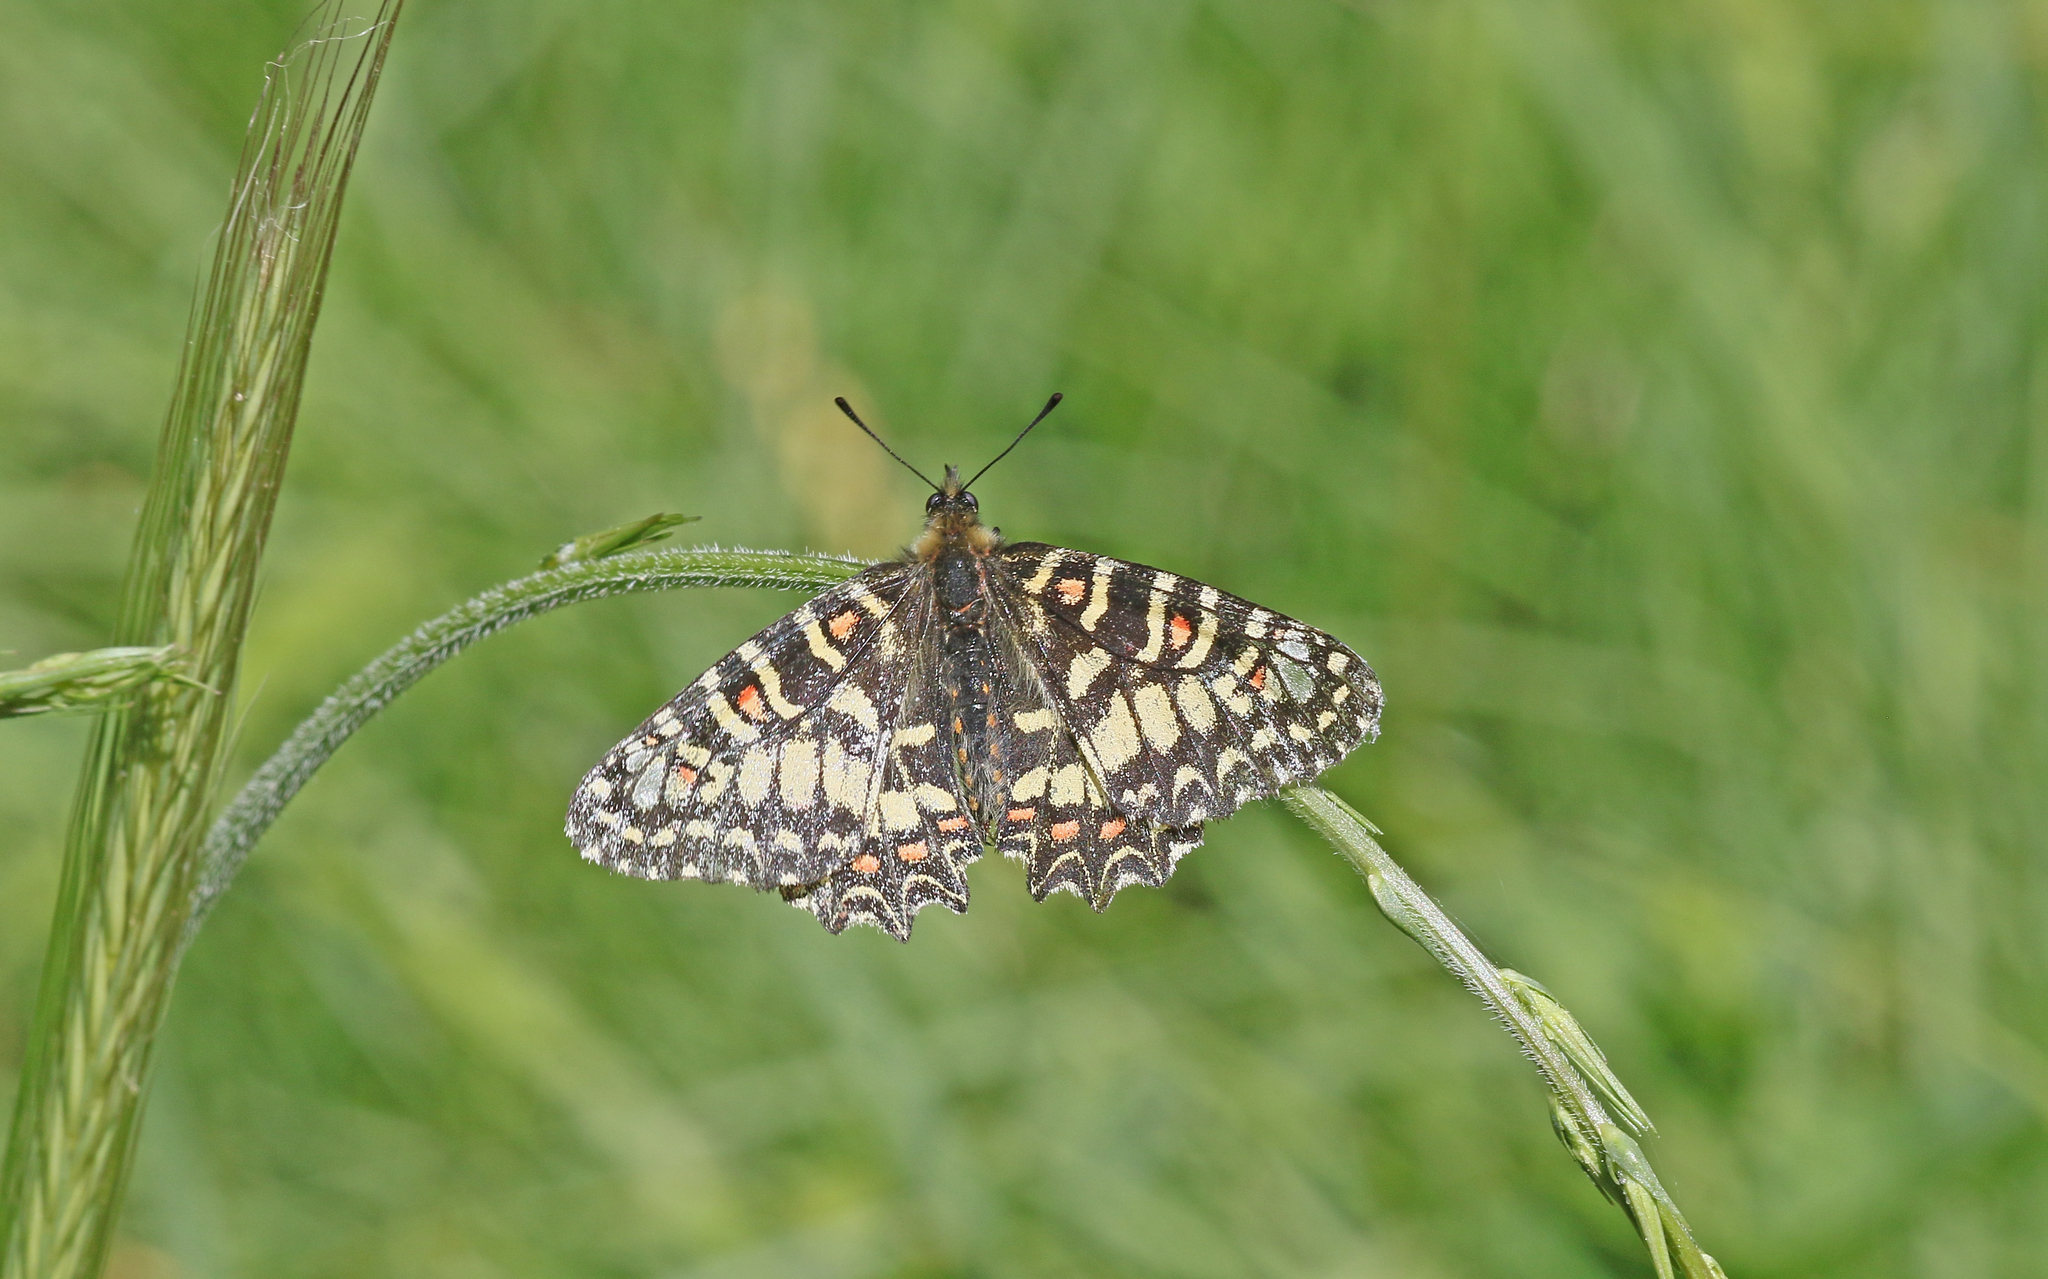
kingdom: Animalia
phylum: Arthropoda
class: Insecta
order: Lepidoptera
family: Papilionidae
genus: Zerynthia
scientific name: Zerynthia rumina
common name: Spanish festoon
